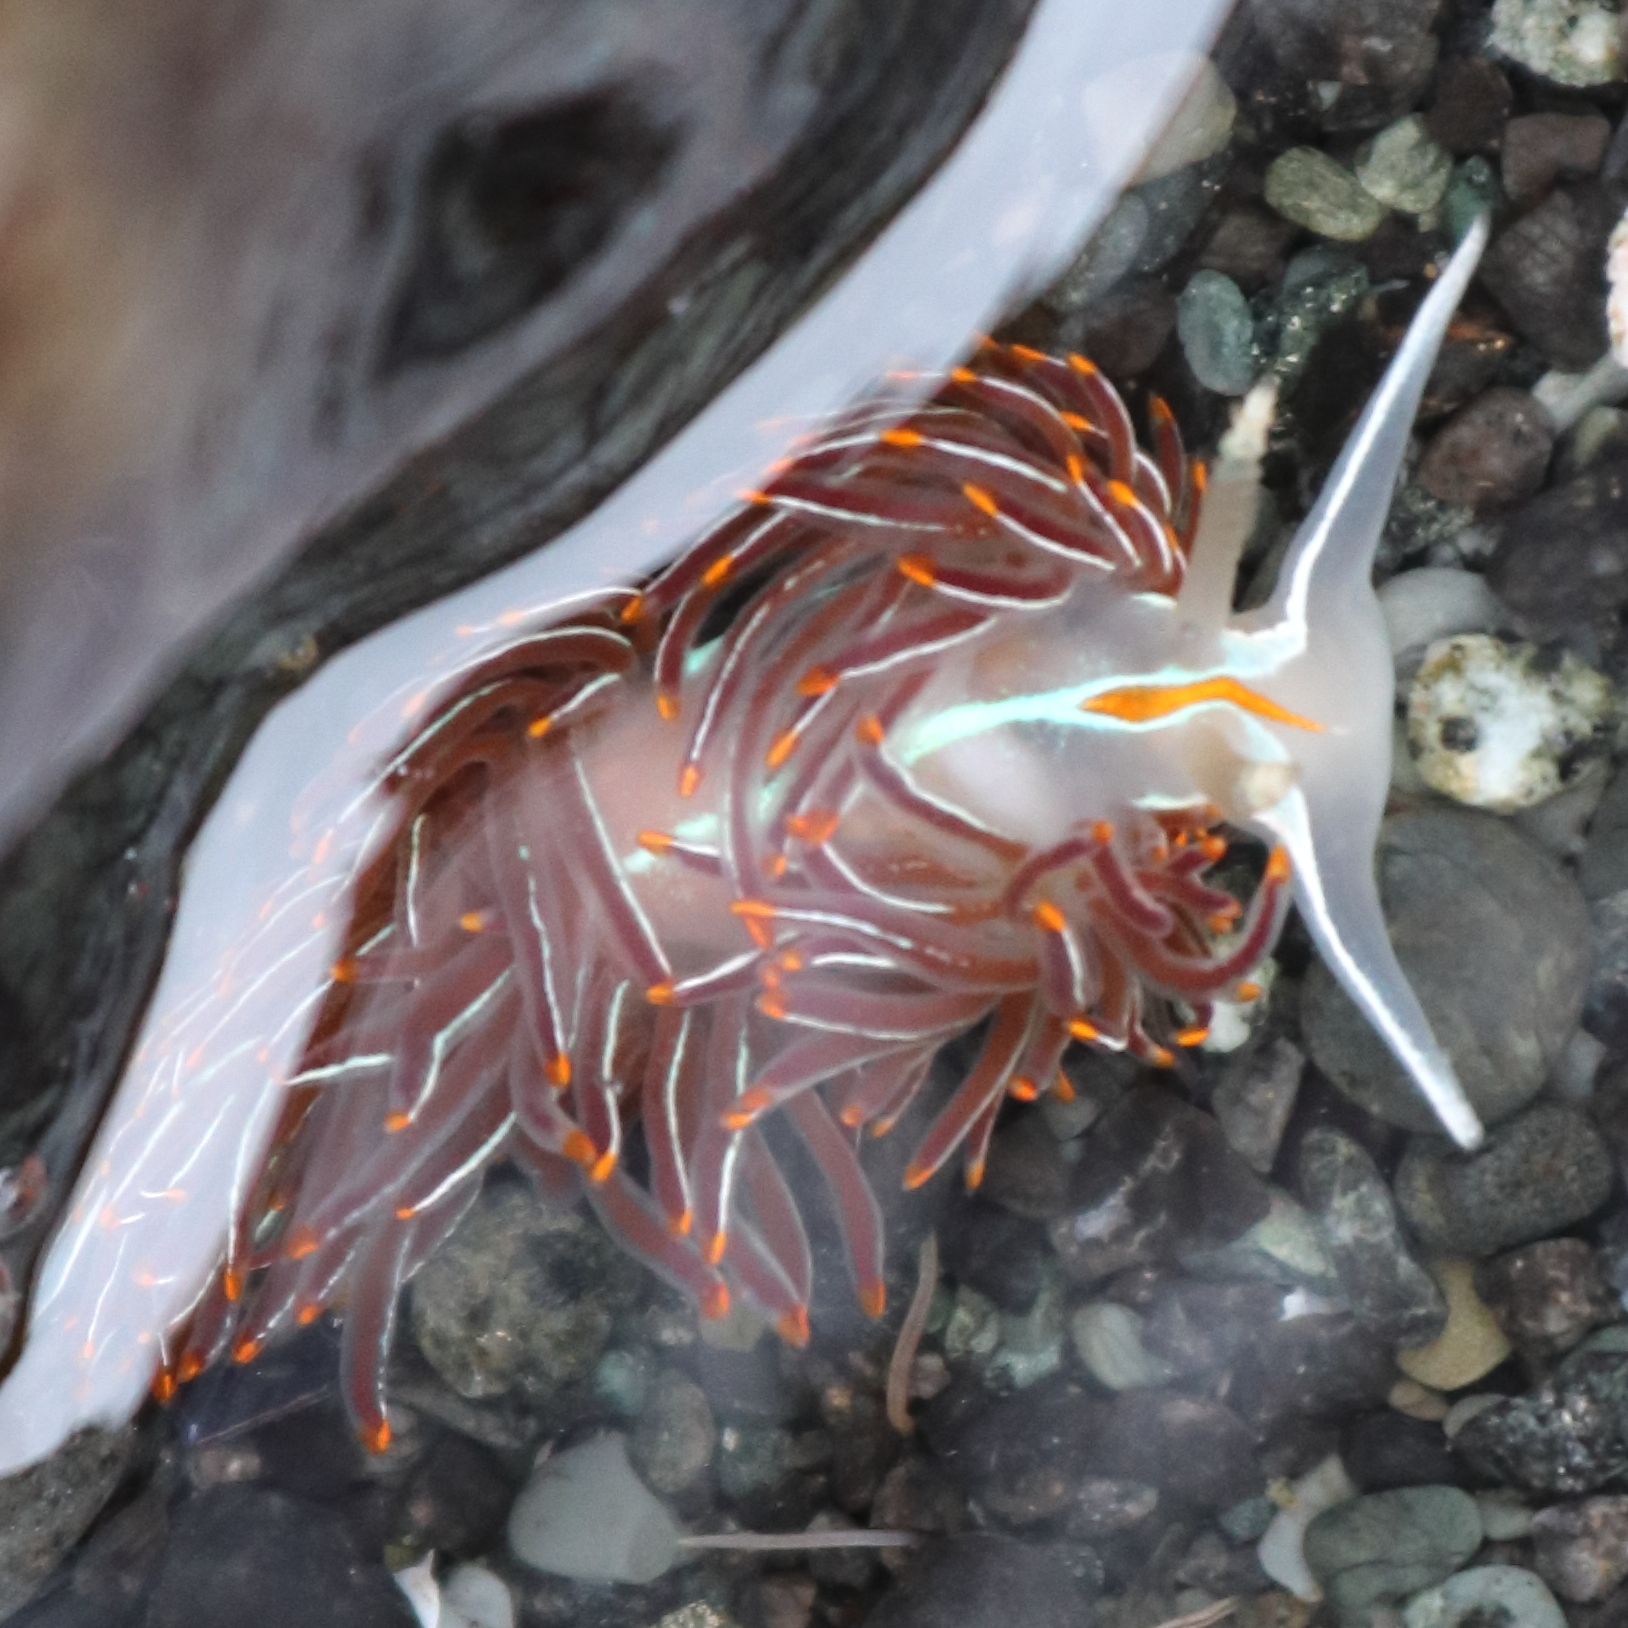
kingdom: Animalia
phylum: Mollusca
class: Gastropoda
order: Nudibranchia
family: Myrrhinidae
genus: Hermissenda
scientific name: Hermissenda crassicornis
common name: Hermissenda
